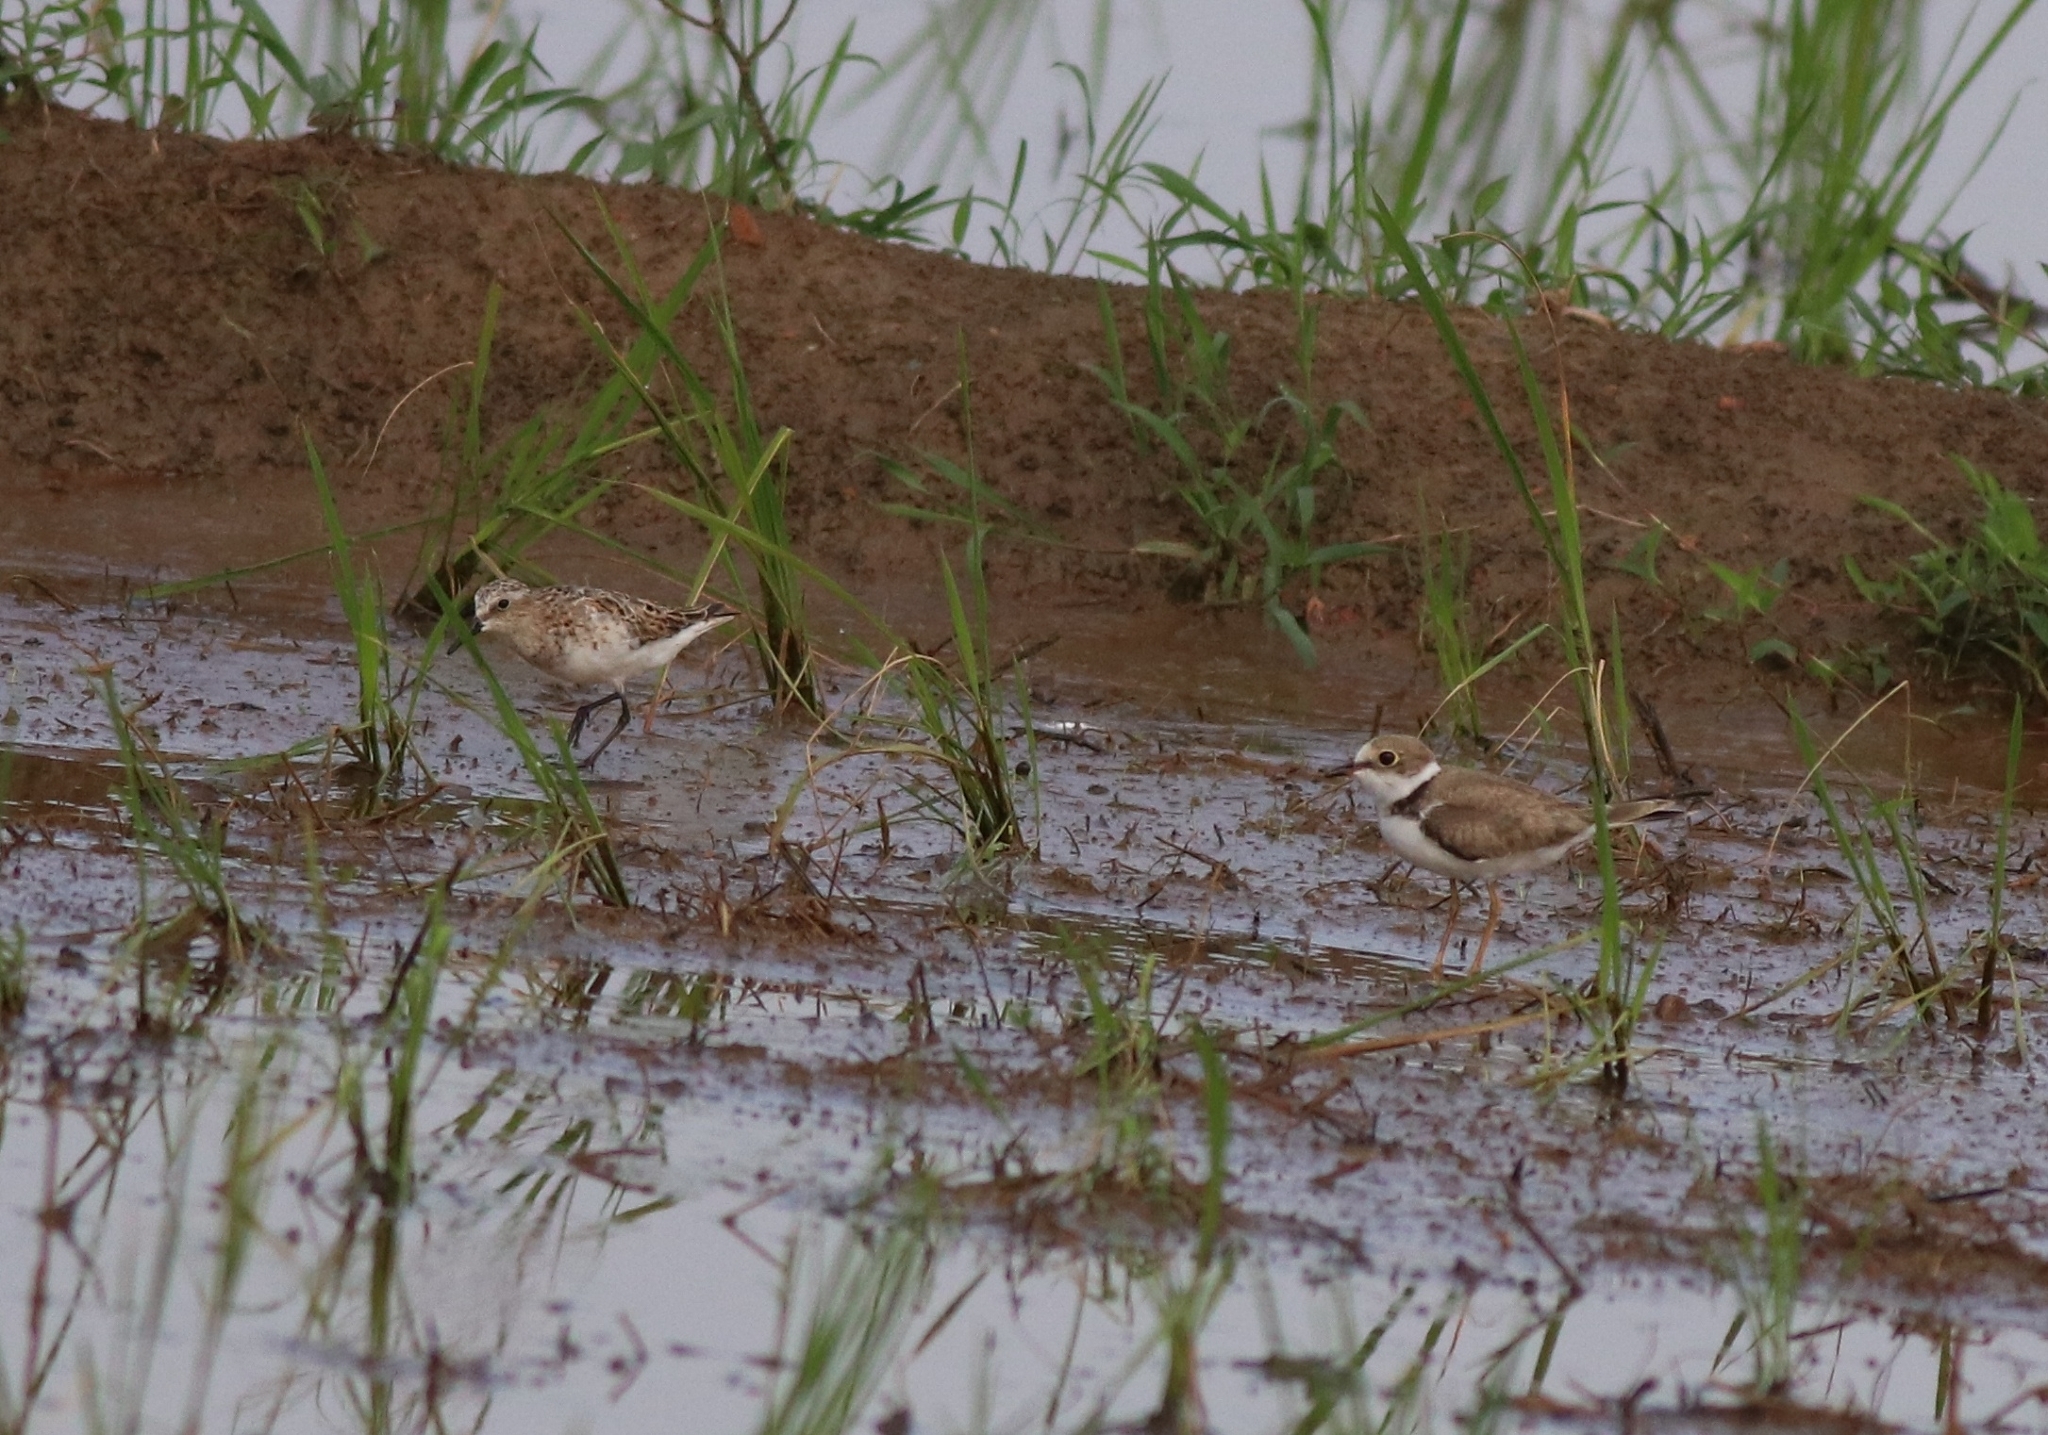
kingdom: Animalia
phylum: Chordata
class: Aves
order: Charadriiformes
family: Scolopacidae
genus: Calidris
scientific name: Calidris minuta
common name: Little stint
